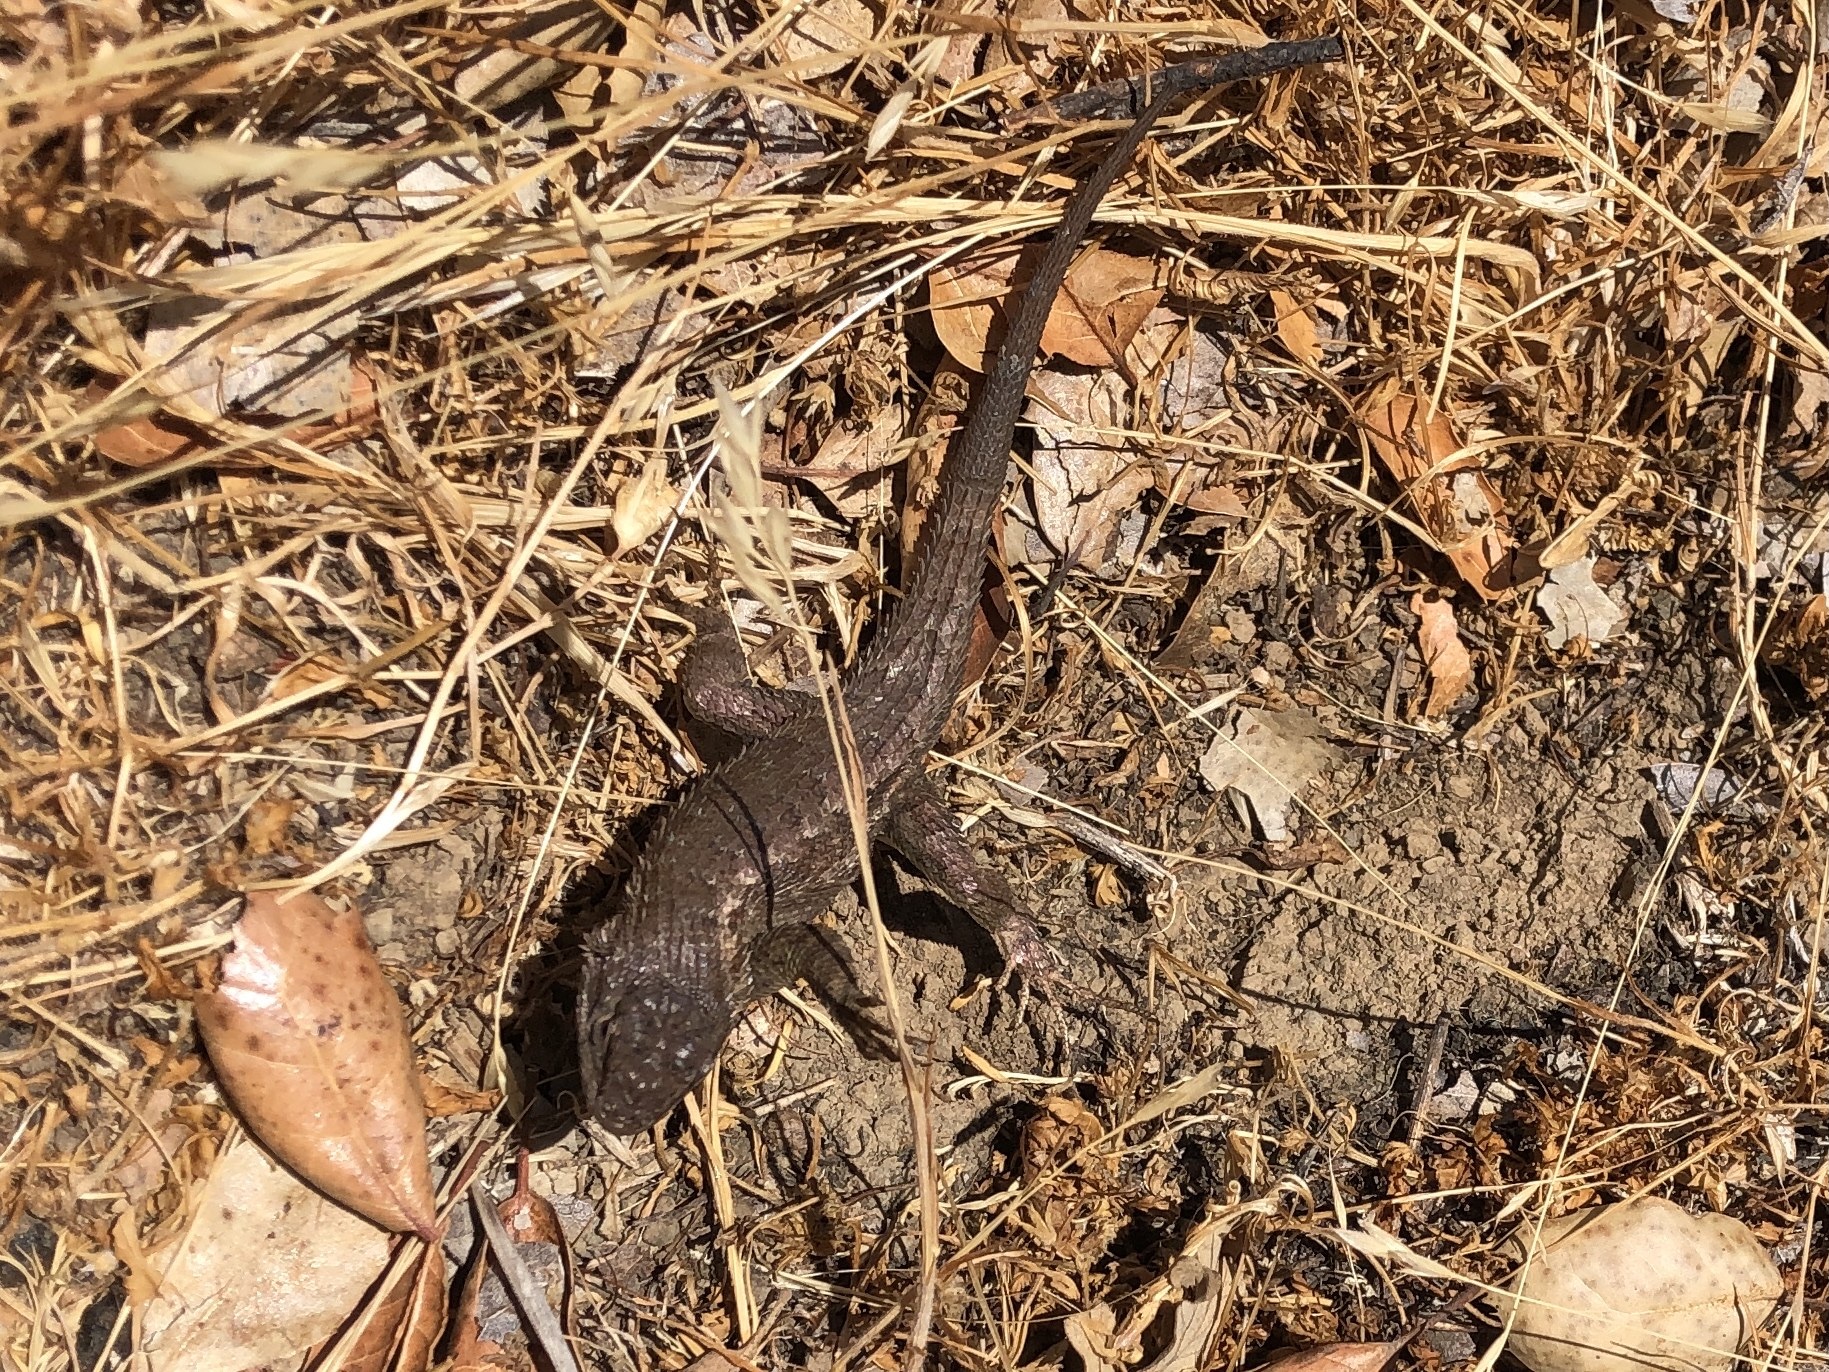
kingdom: Animalia
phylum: Chordata
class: Squamata
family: Phrynosomatidae
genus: Sceloporus
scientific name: Sceloporus occidentalis
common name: Western fence lizard
